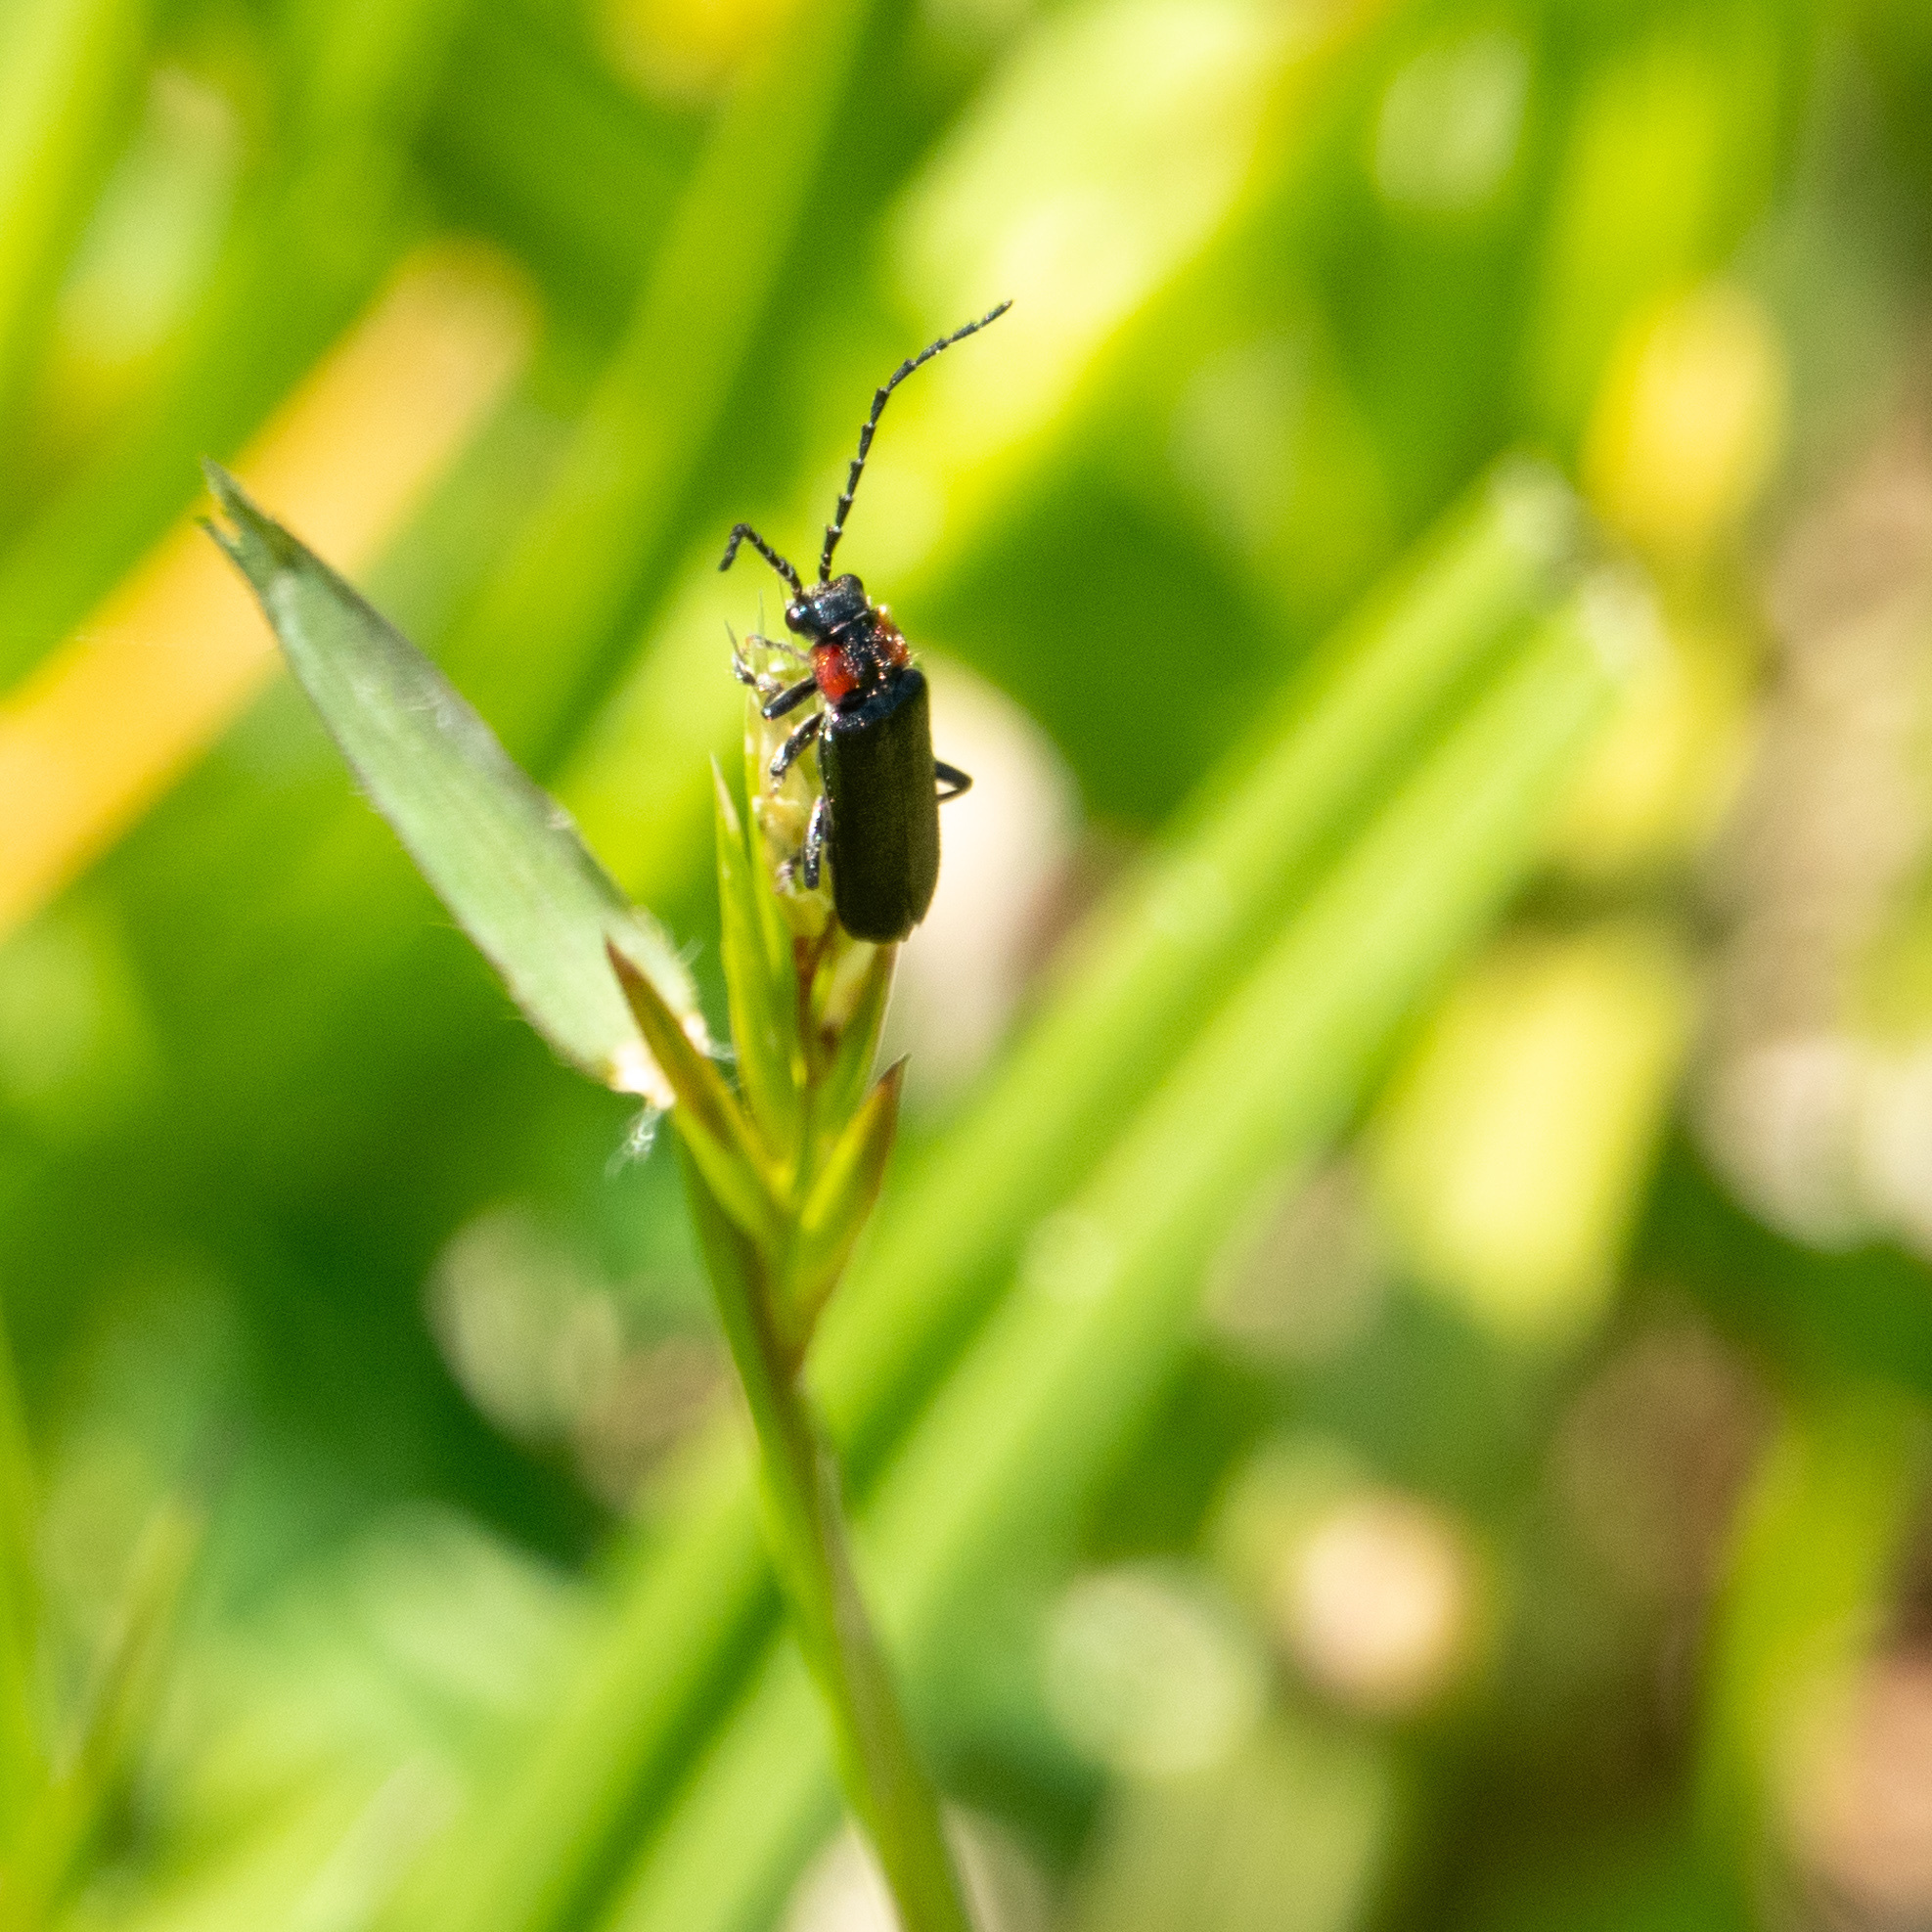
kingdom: Animalia
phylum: Arthropoda
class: Insecta
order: Coleoptera
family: Cantharidae
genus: Cantharis
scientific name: Cantharis tuberculata
